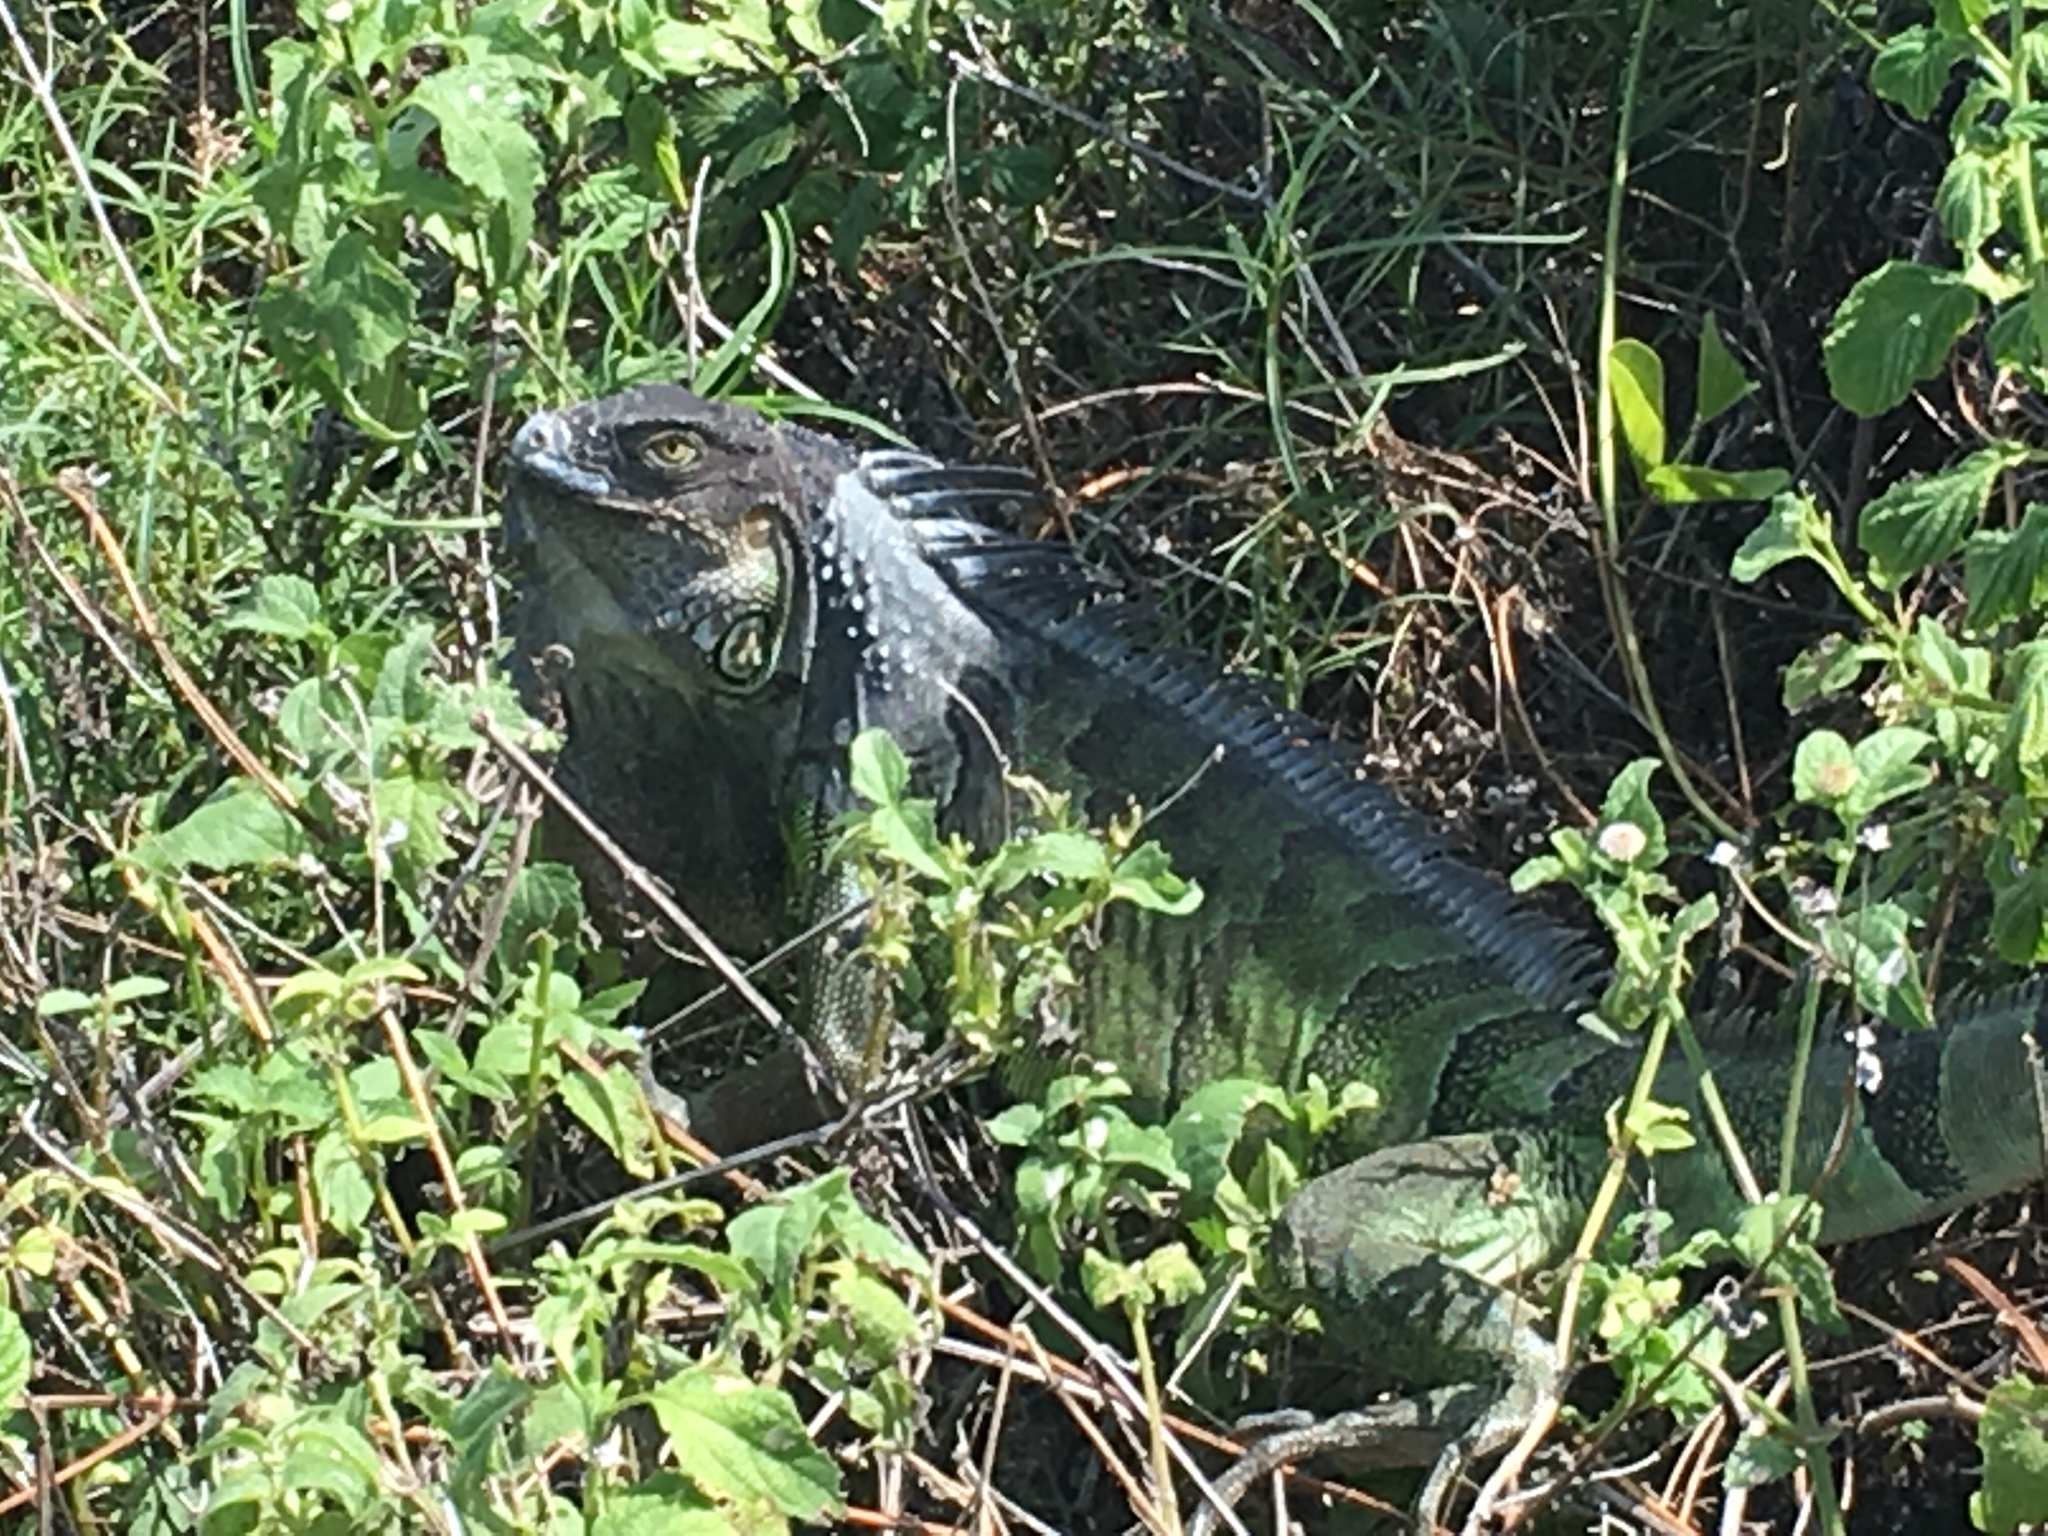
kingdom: Animalia
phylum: Chordata
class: Squamata
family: Iguanidae
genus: Iguana
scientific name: Iguana iguana
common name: Green iguana
